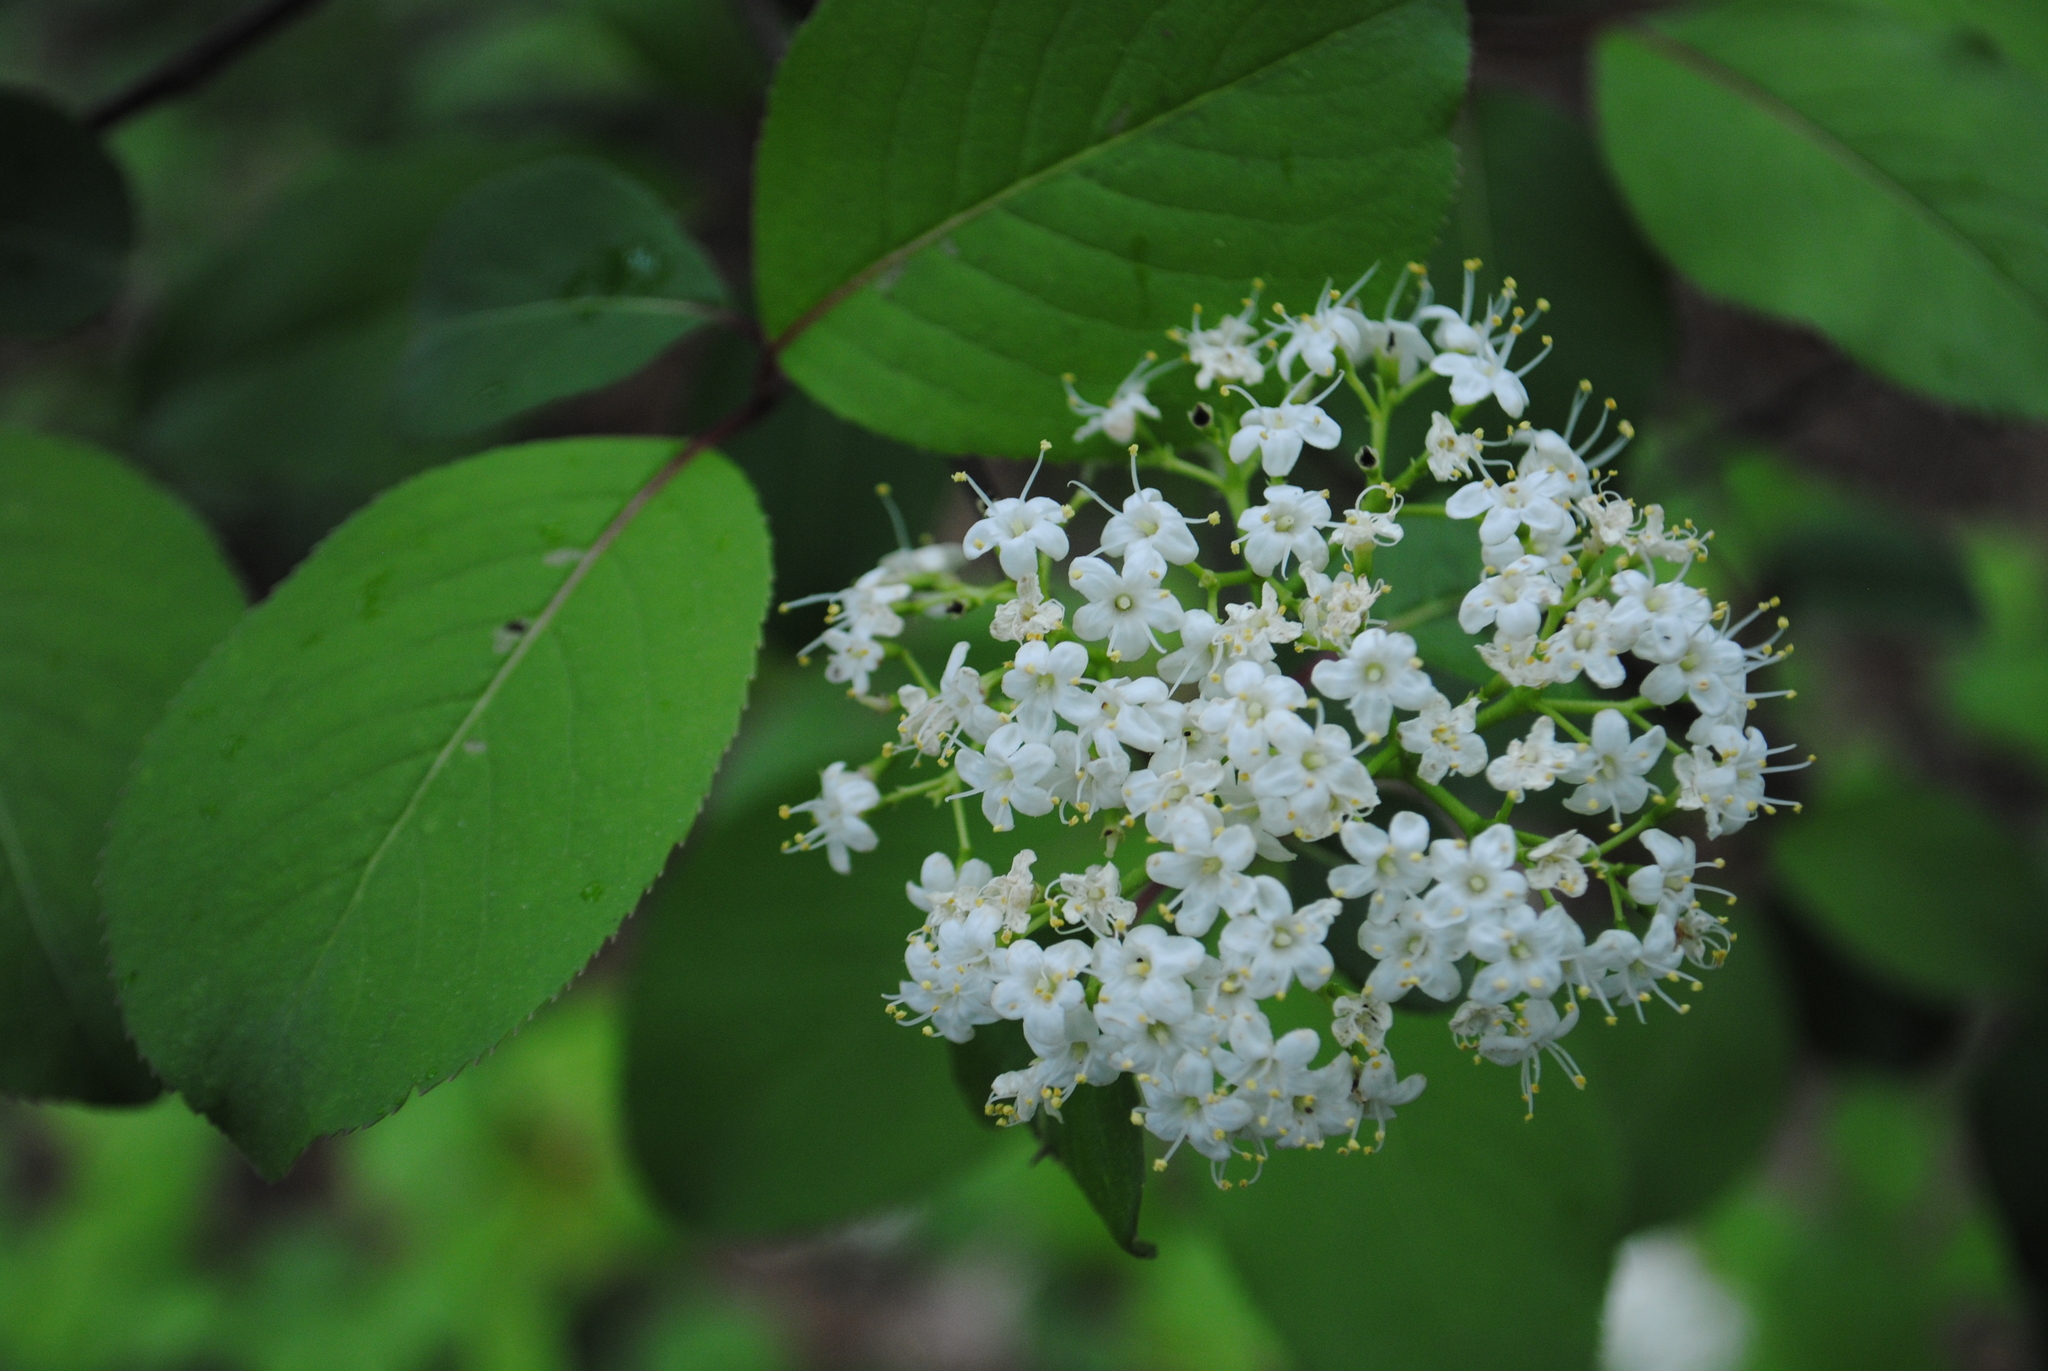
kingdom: Plantae
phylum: Tracheophyta
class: Magnoliopsida
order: Dipsacales
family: Viburnaceae
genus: Viburnum
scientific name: Viburnum prunifolium
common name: Black haw
